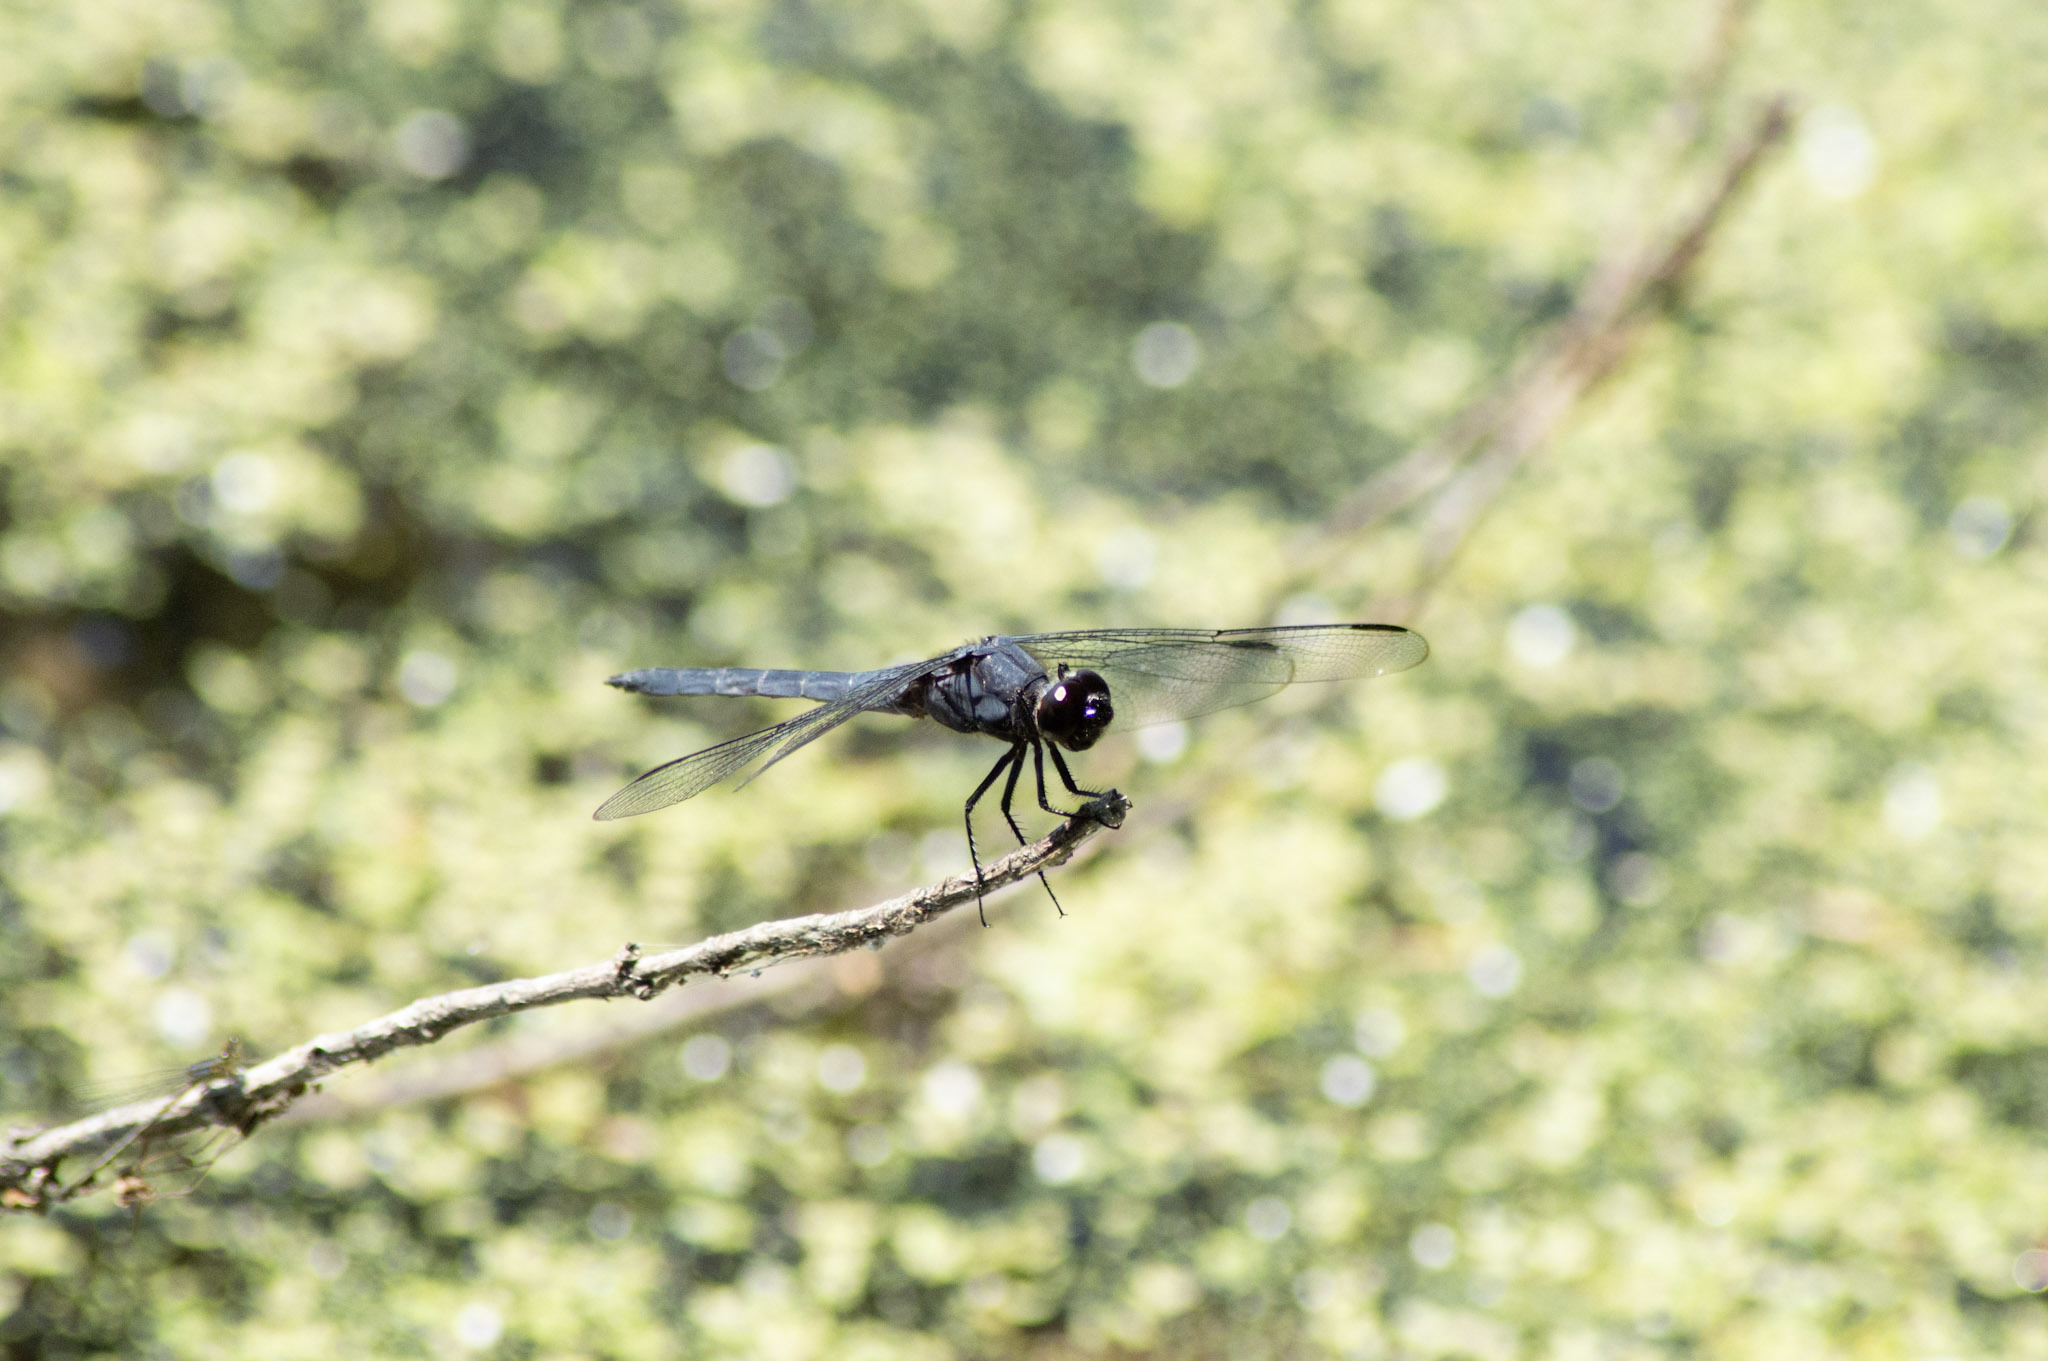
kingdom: Animalia
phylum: Arthropoda
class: Insecta
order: Odonata
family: Libellulidae
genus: Libellula
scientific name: Libellula incesta
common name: Slaty skimmer
